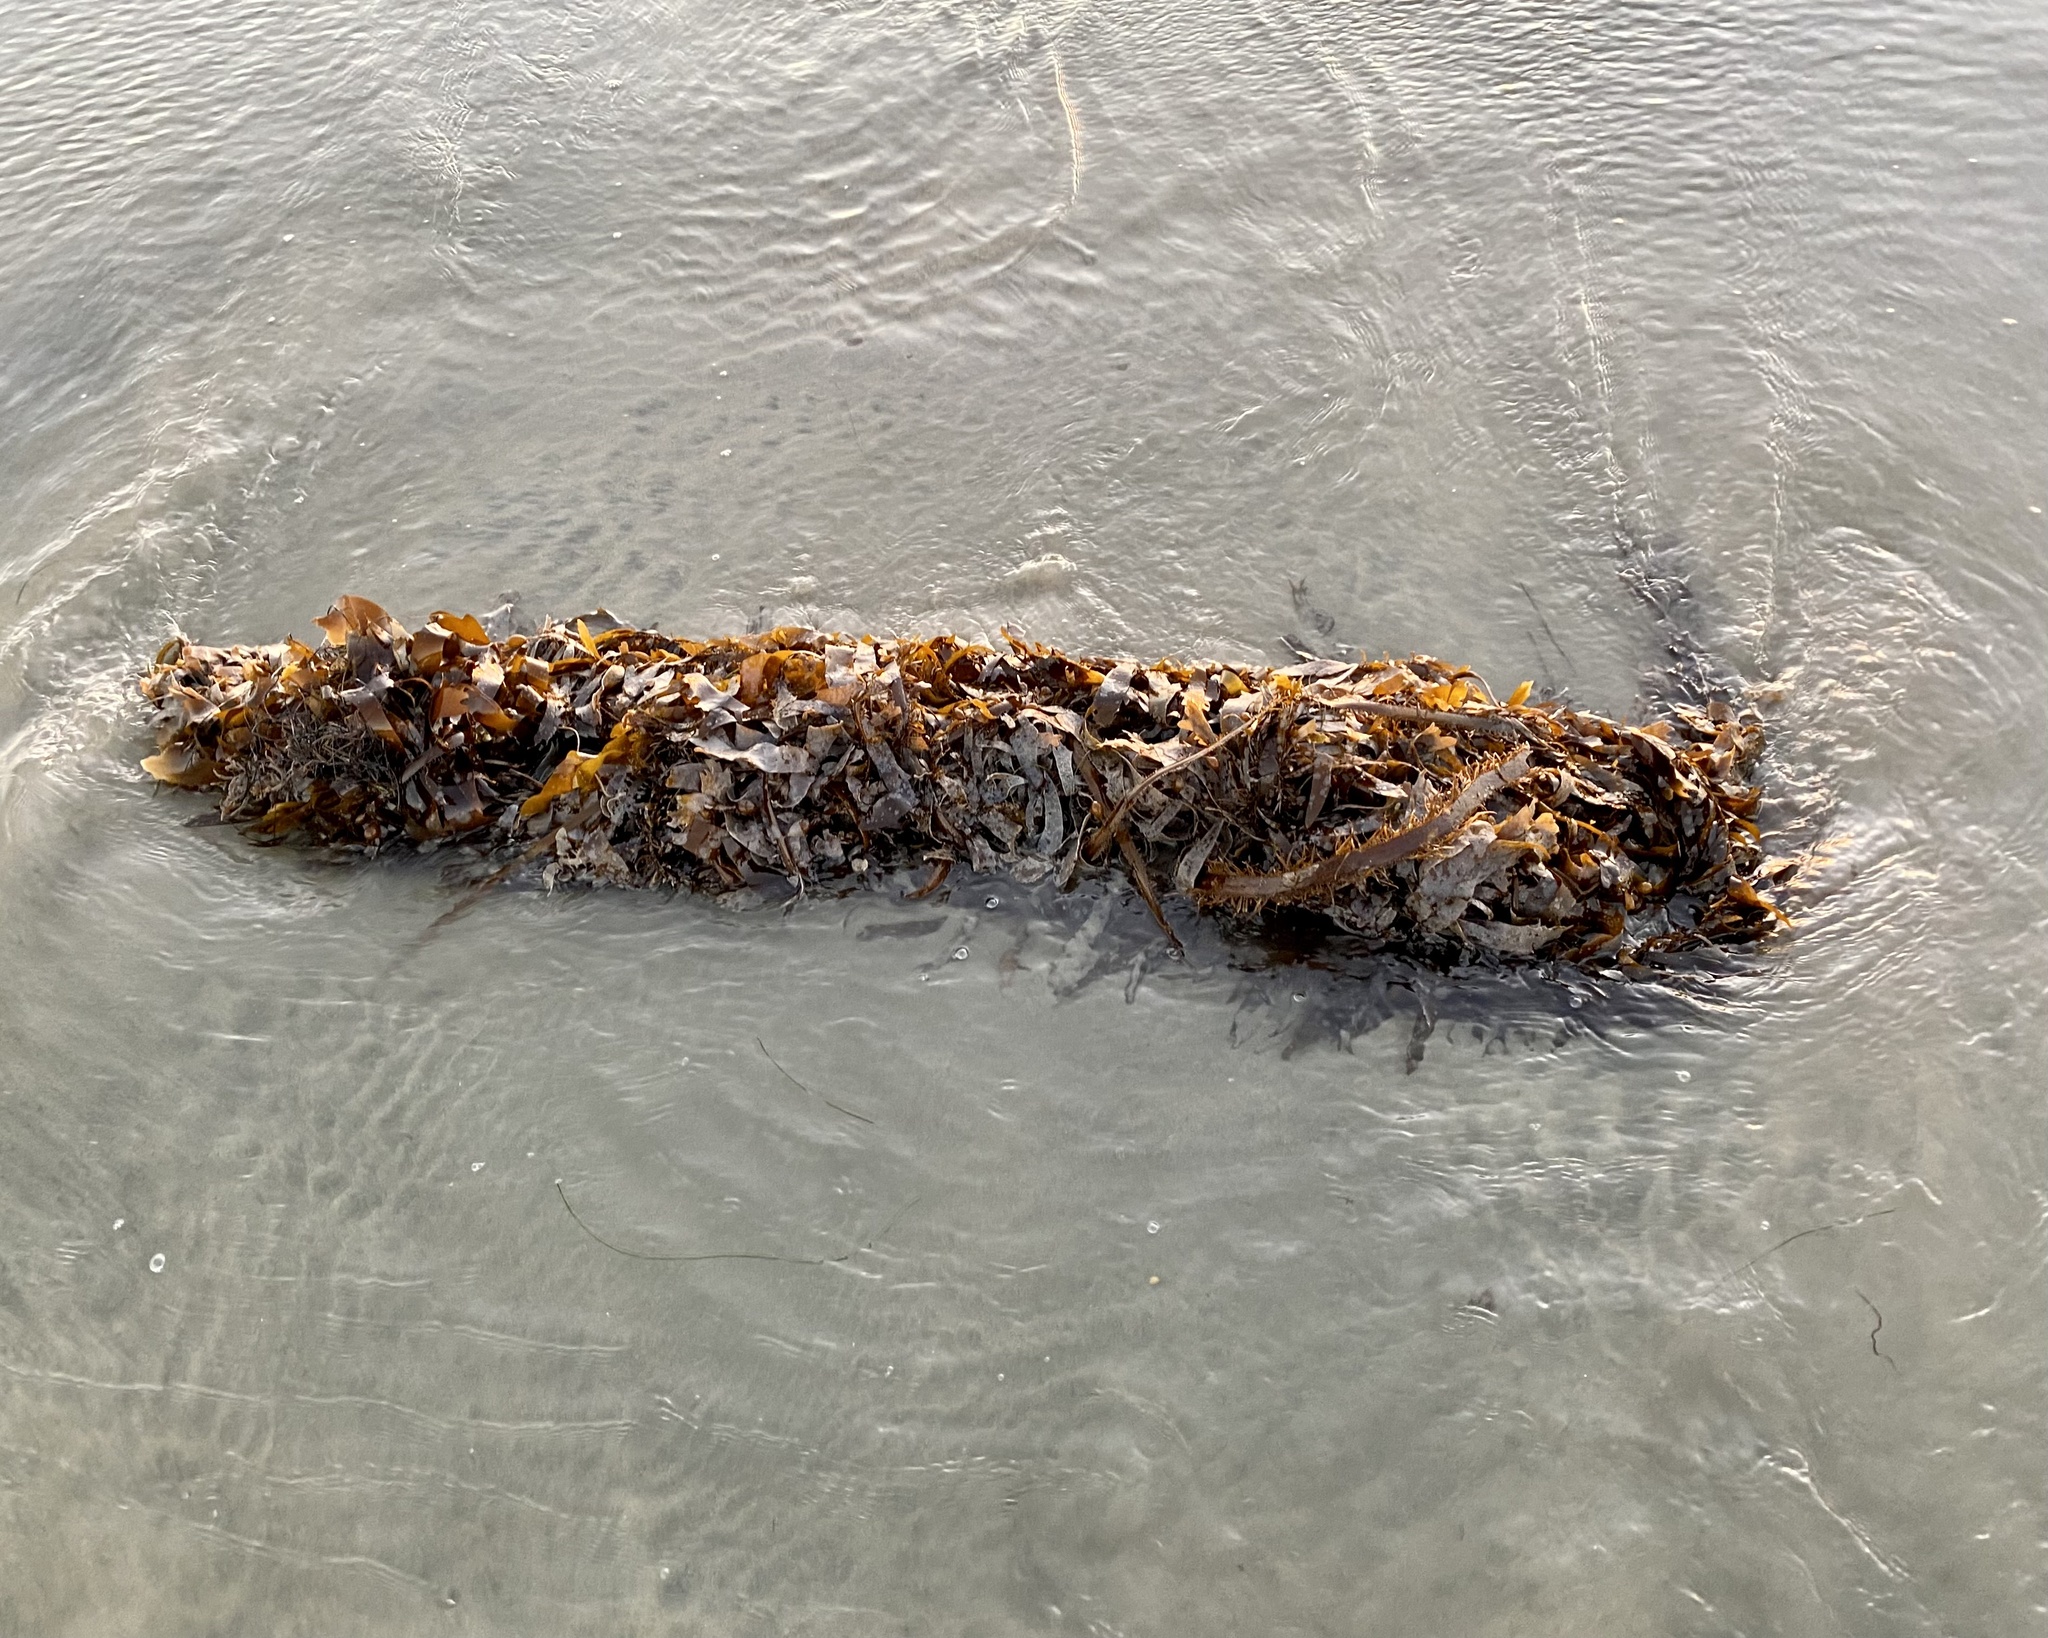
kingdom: Chromista
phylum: Ochrophyta
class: Phaeophyceae
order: Laminariales
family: Lessoniaceae
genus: Egregia
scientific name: Egregia menziesii
